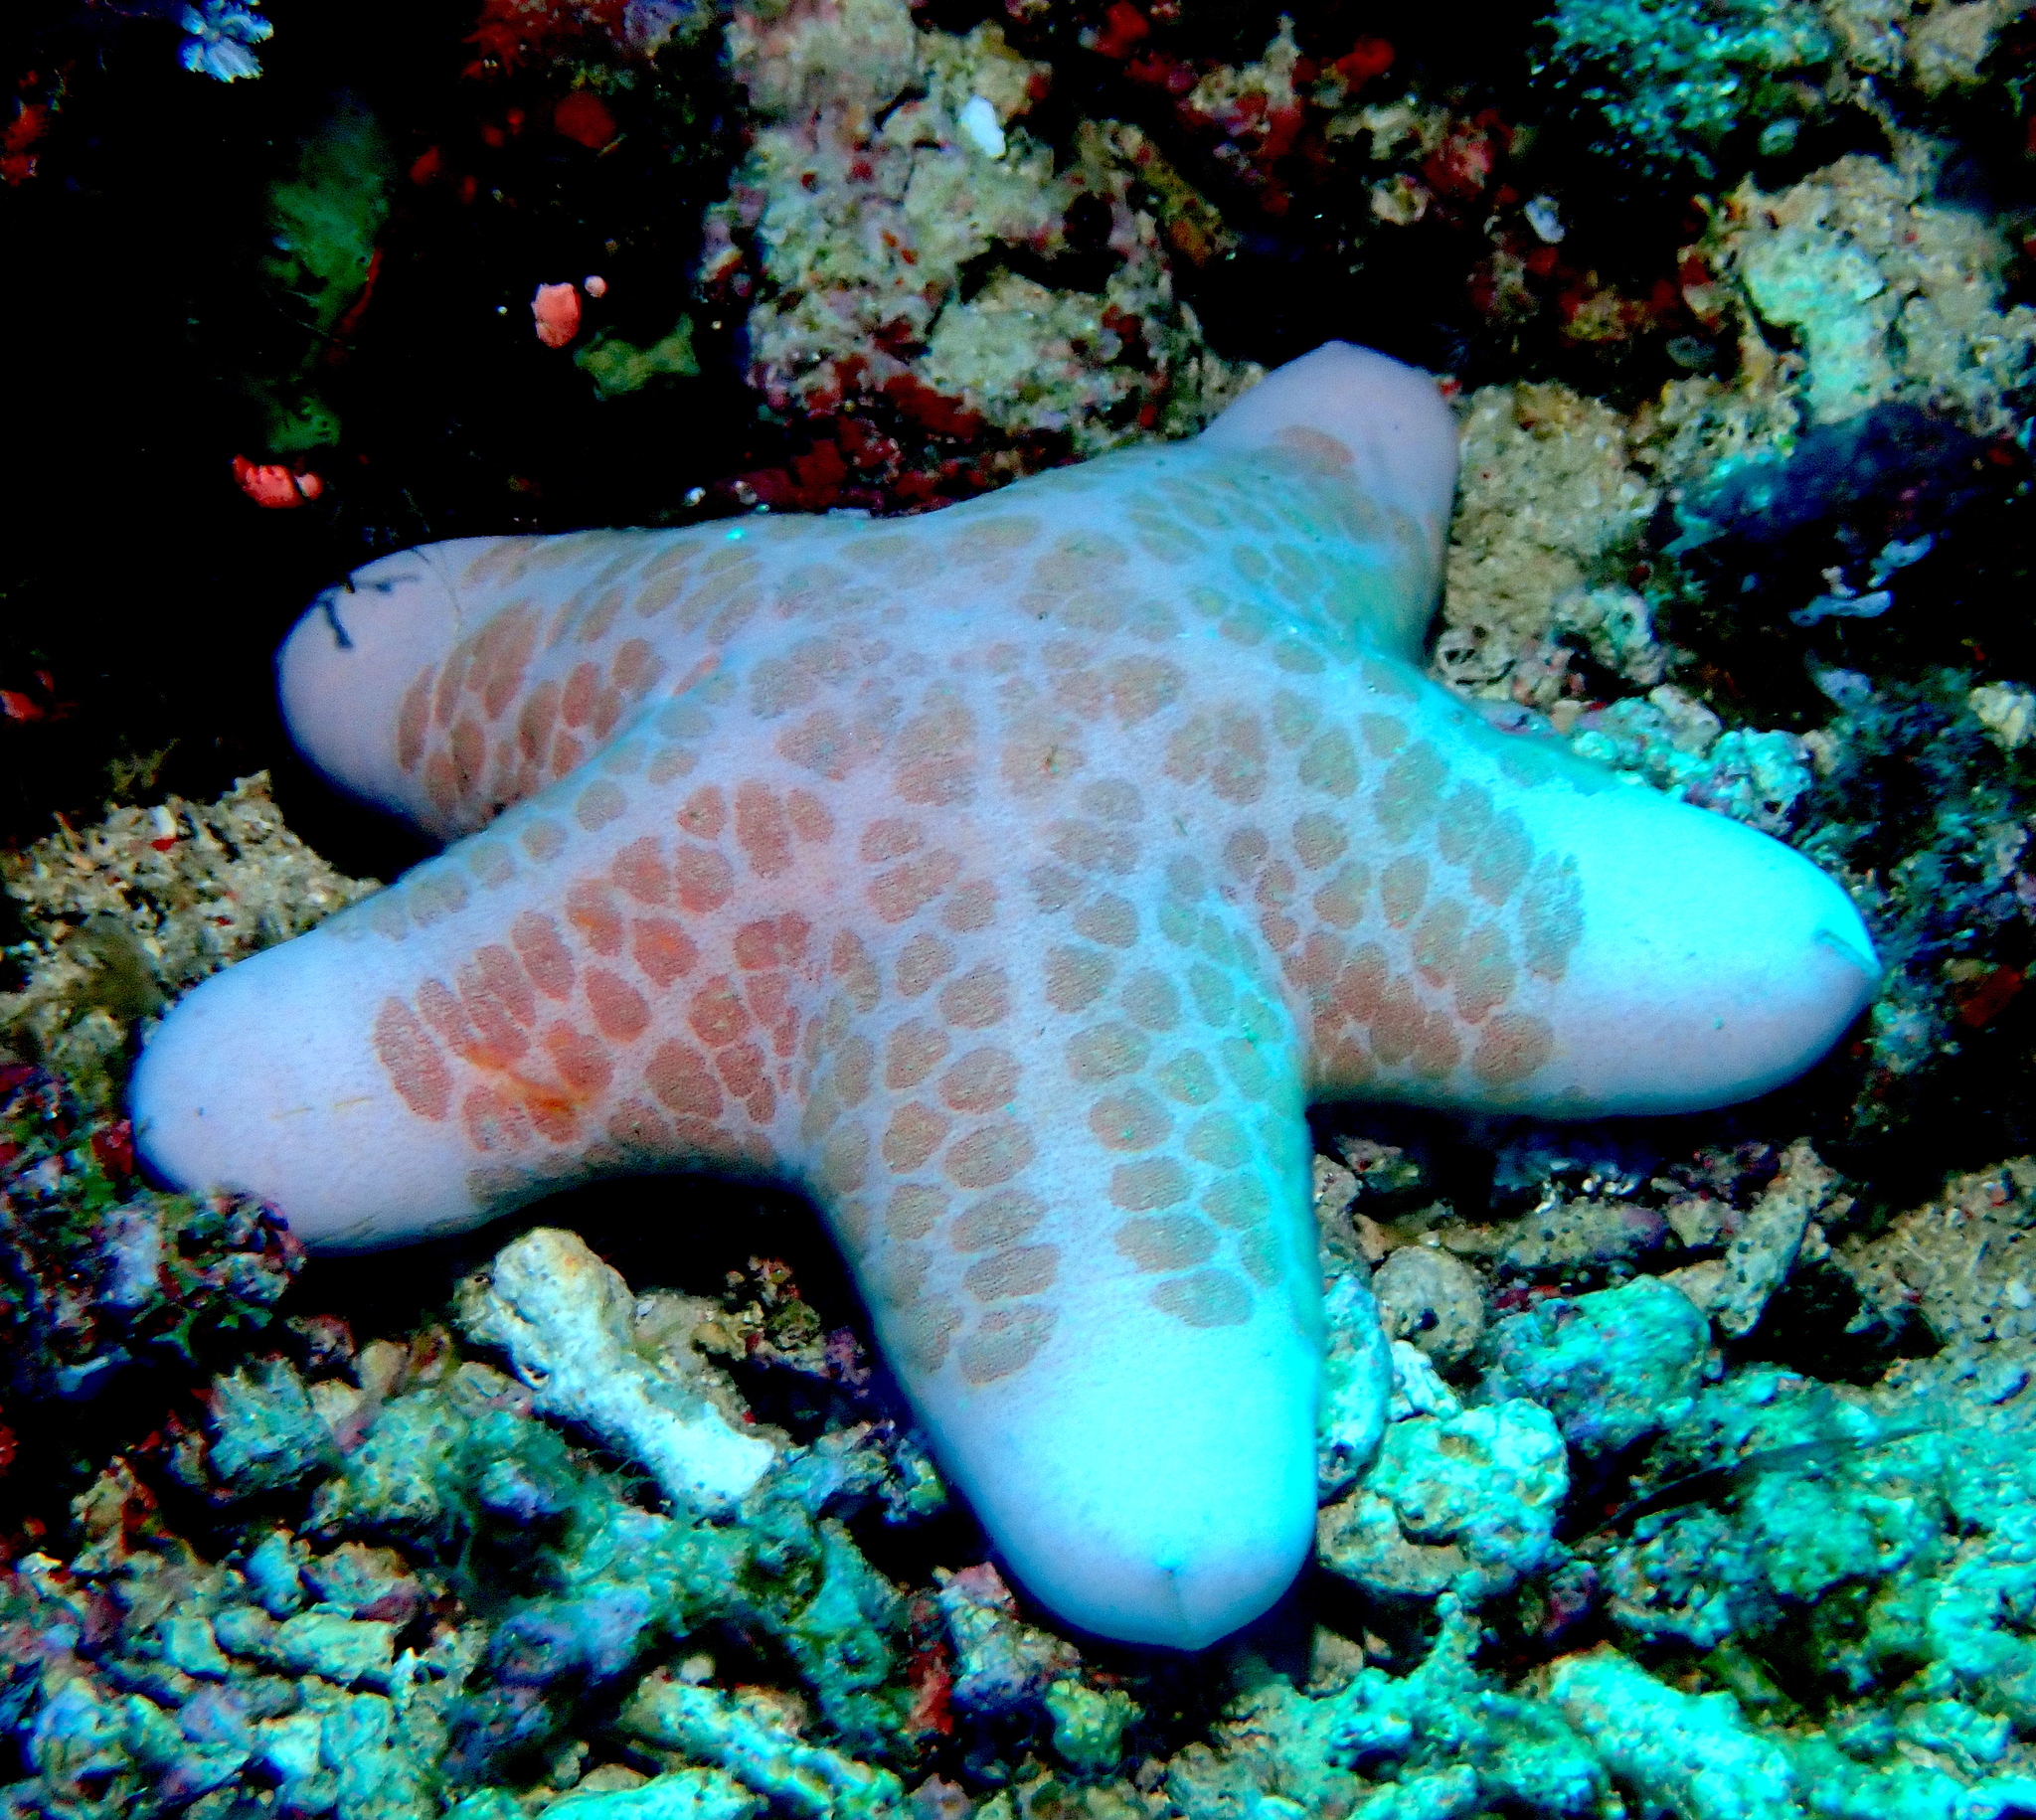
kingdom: Animalia
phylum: Echinodermata
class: Asteroidea
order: Valvatida
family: Oreasteridae
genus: Choriaster
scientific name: Choriaster granulatus
